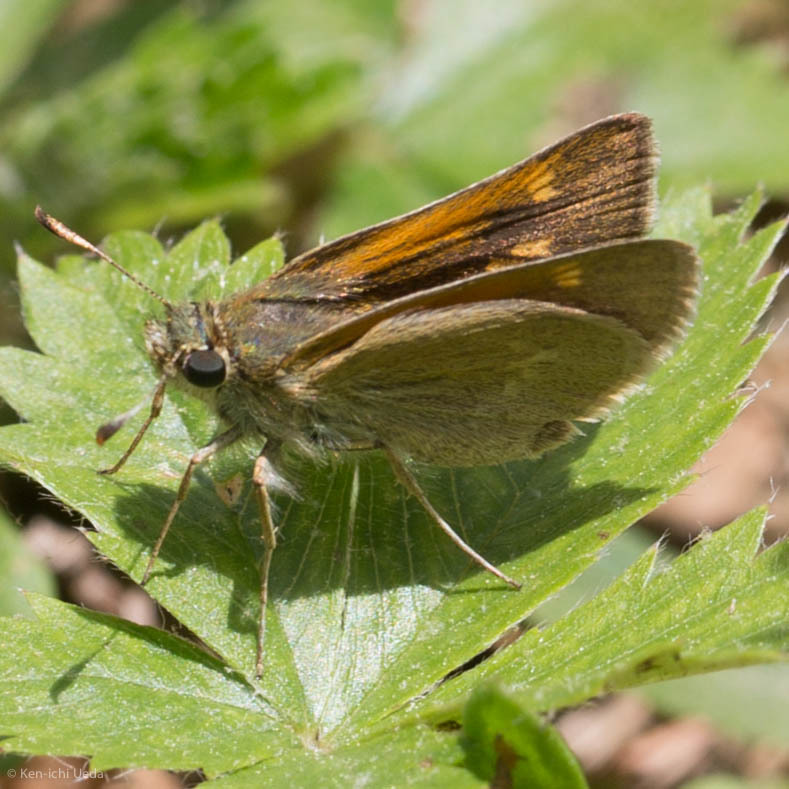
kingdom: Animalia
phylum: Arthropoda
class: Insecta
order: Lepidoptera
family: Hesperiidae
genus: Polites
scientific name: Polites themistocles
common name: Tawny-edged skipper
